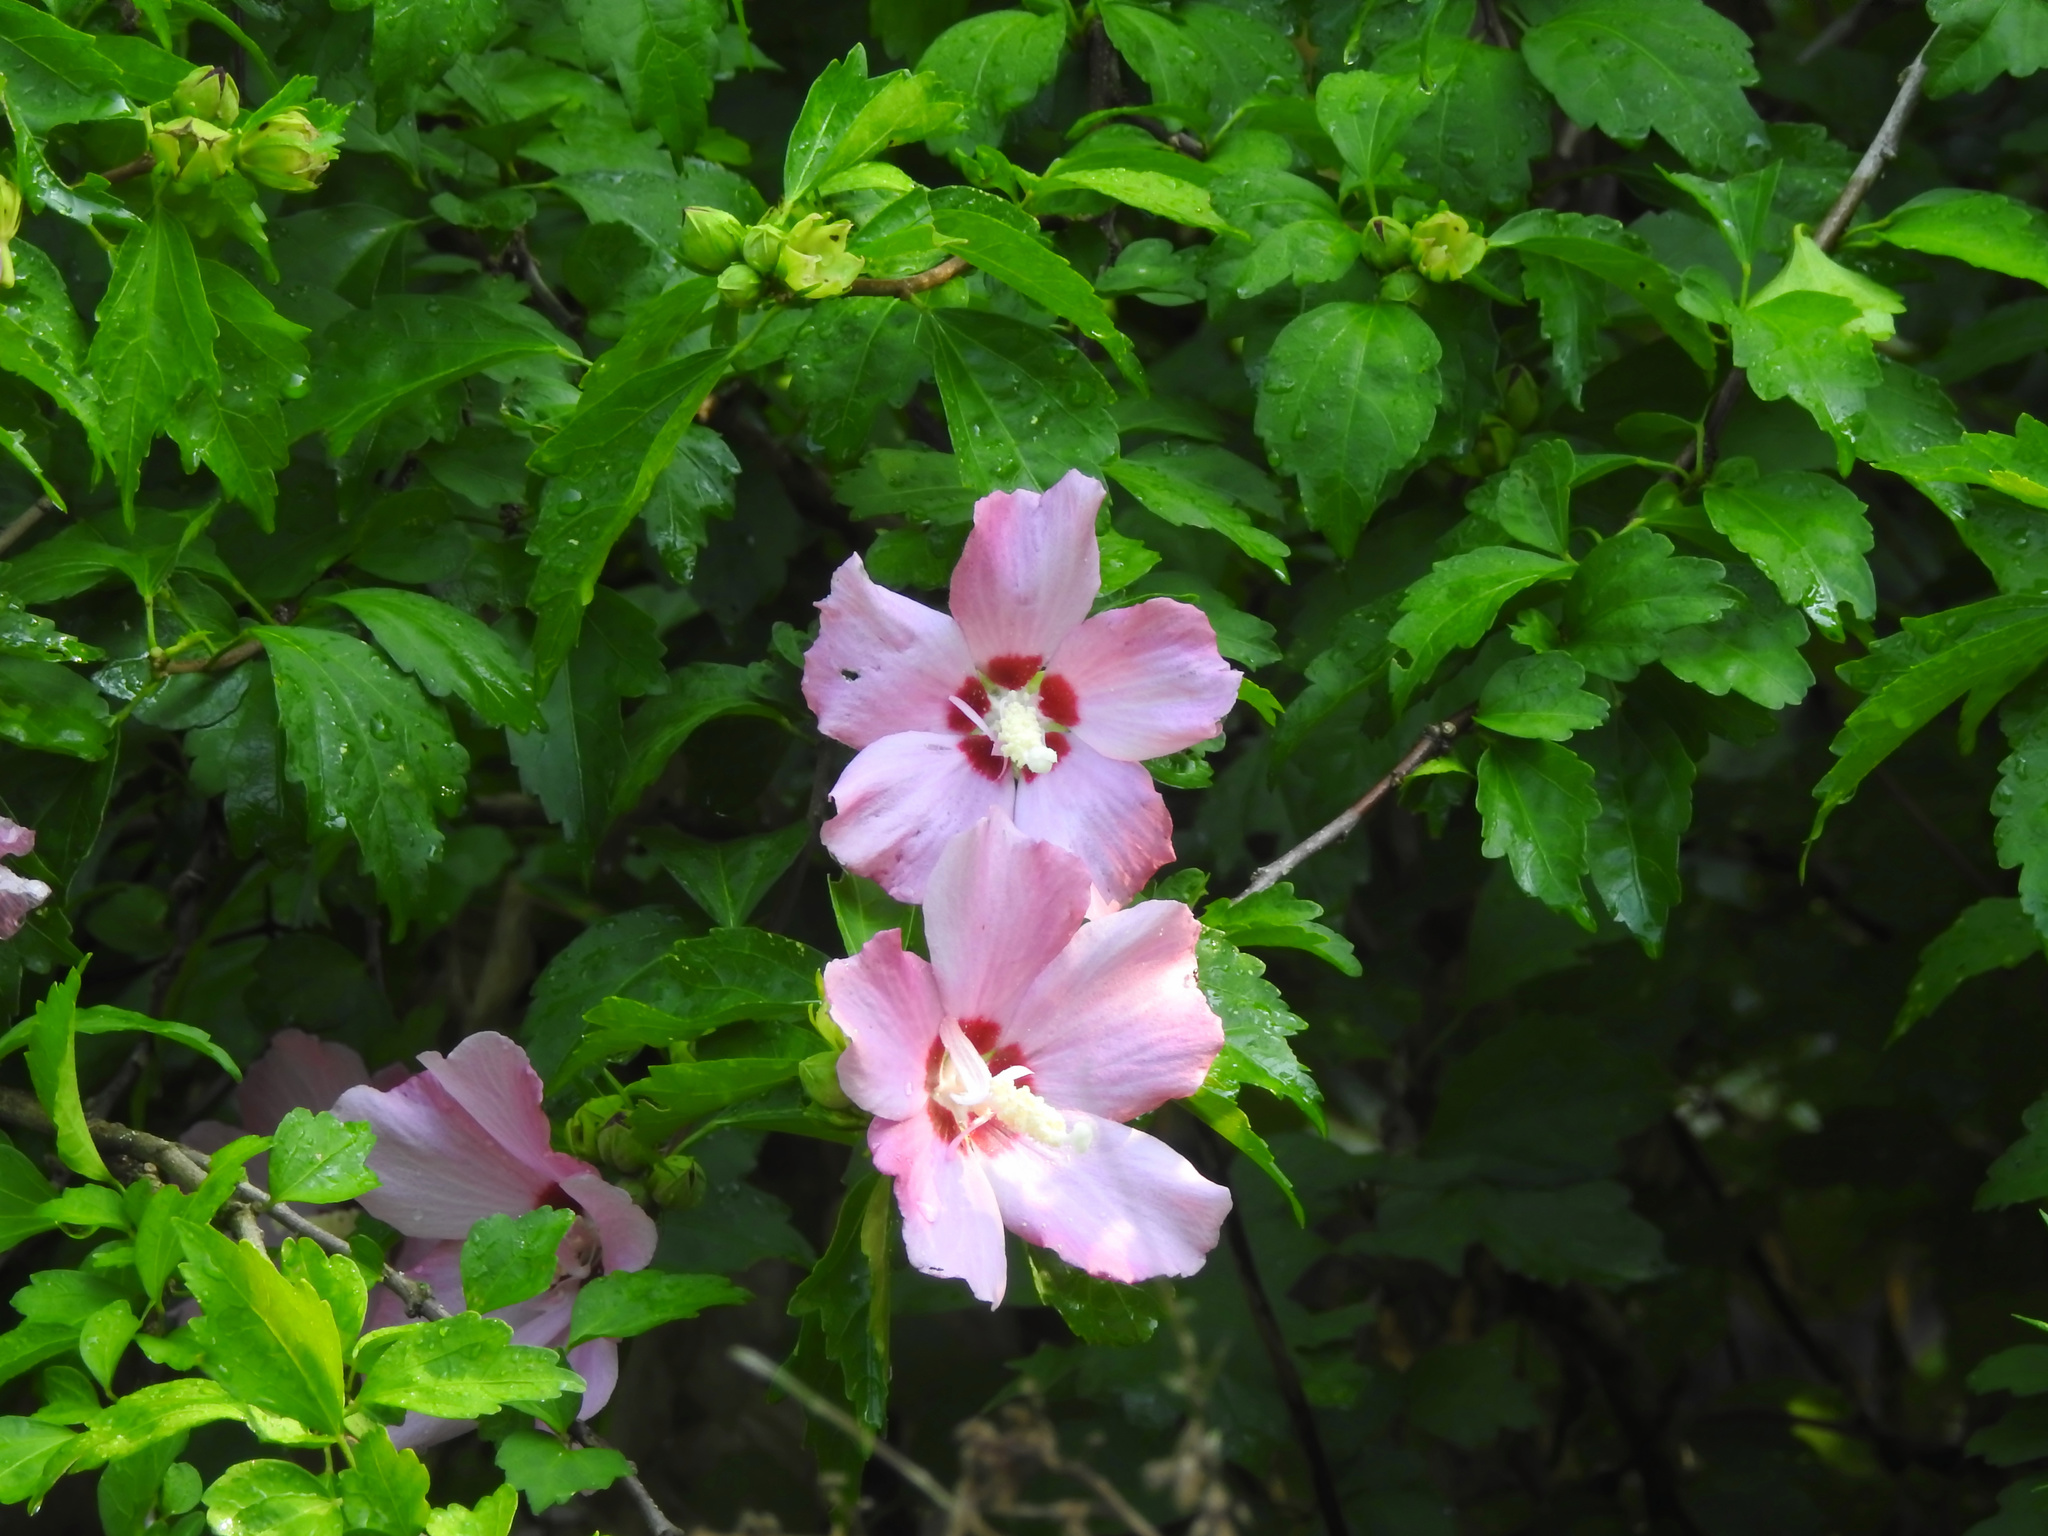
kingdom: Plantae
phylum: Tracheophyta
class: Magnoliopsida
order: Malvales
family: Malvaceae
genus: Hibiscus
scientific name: Hibiscus syriacus
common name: Syrian ketmia
